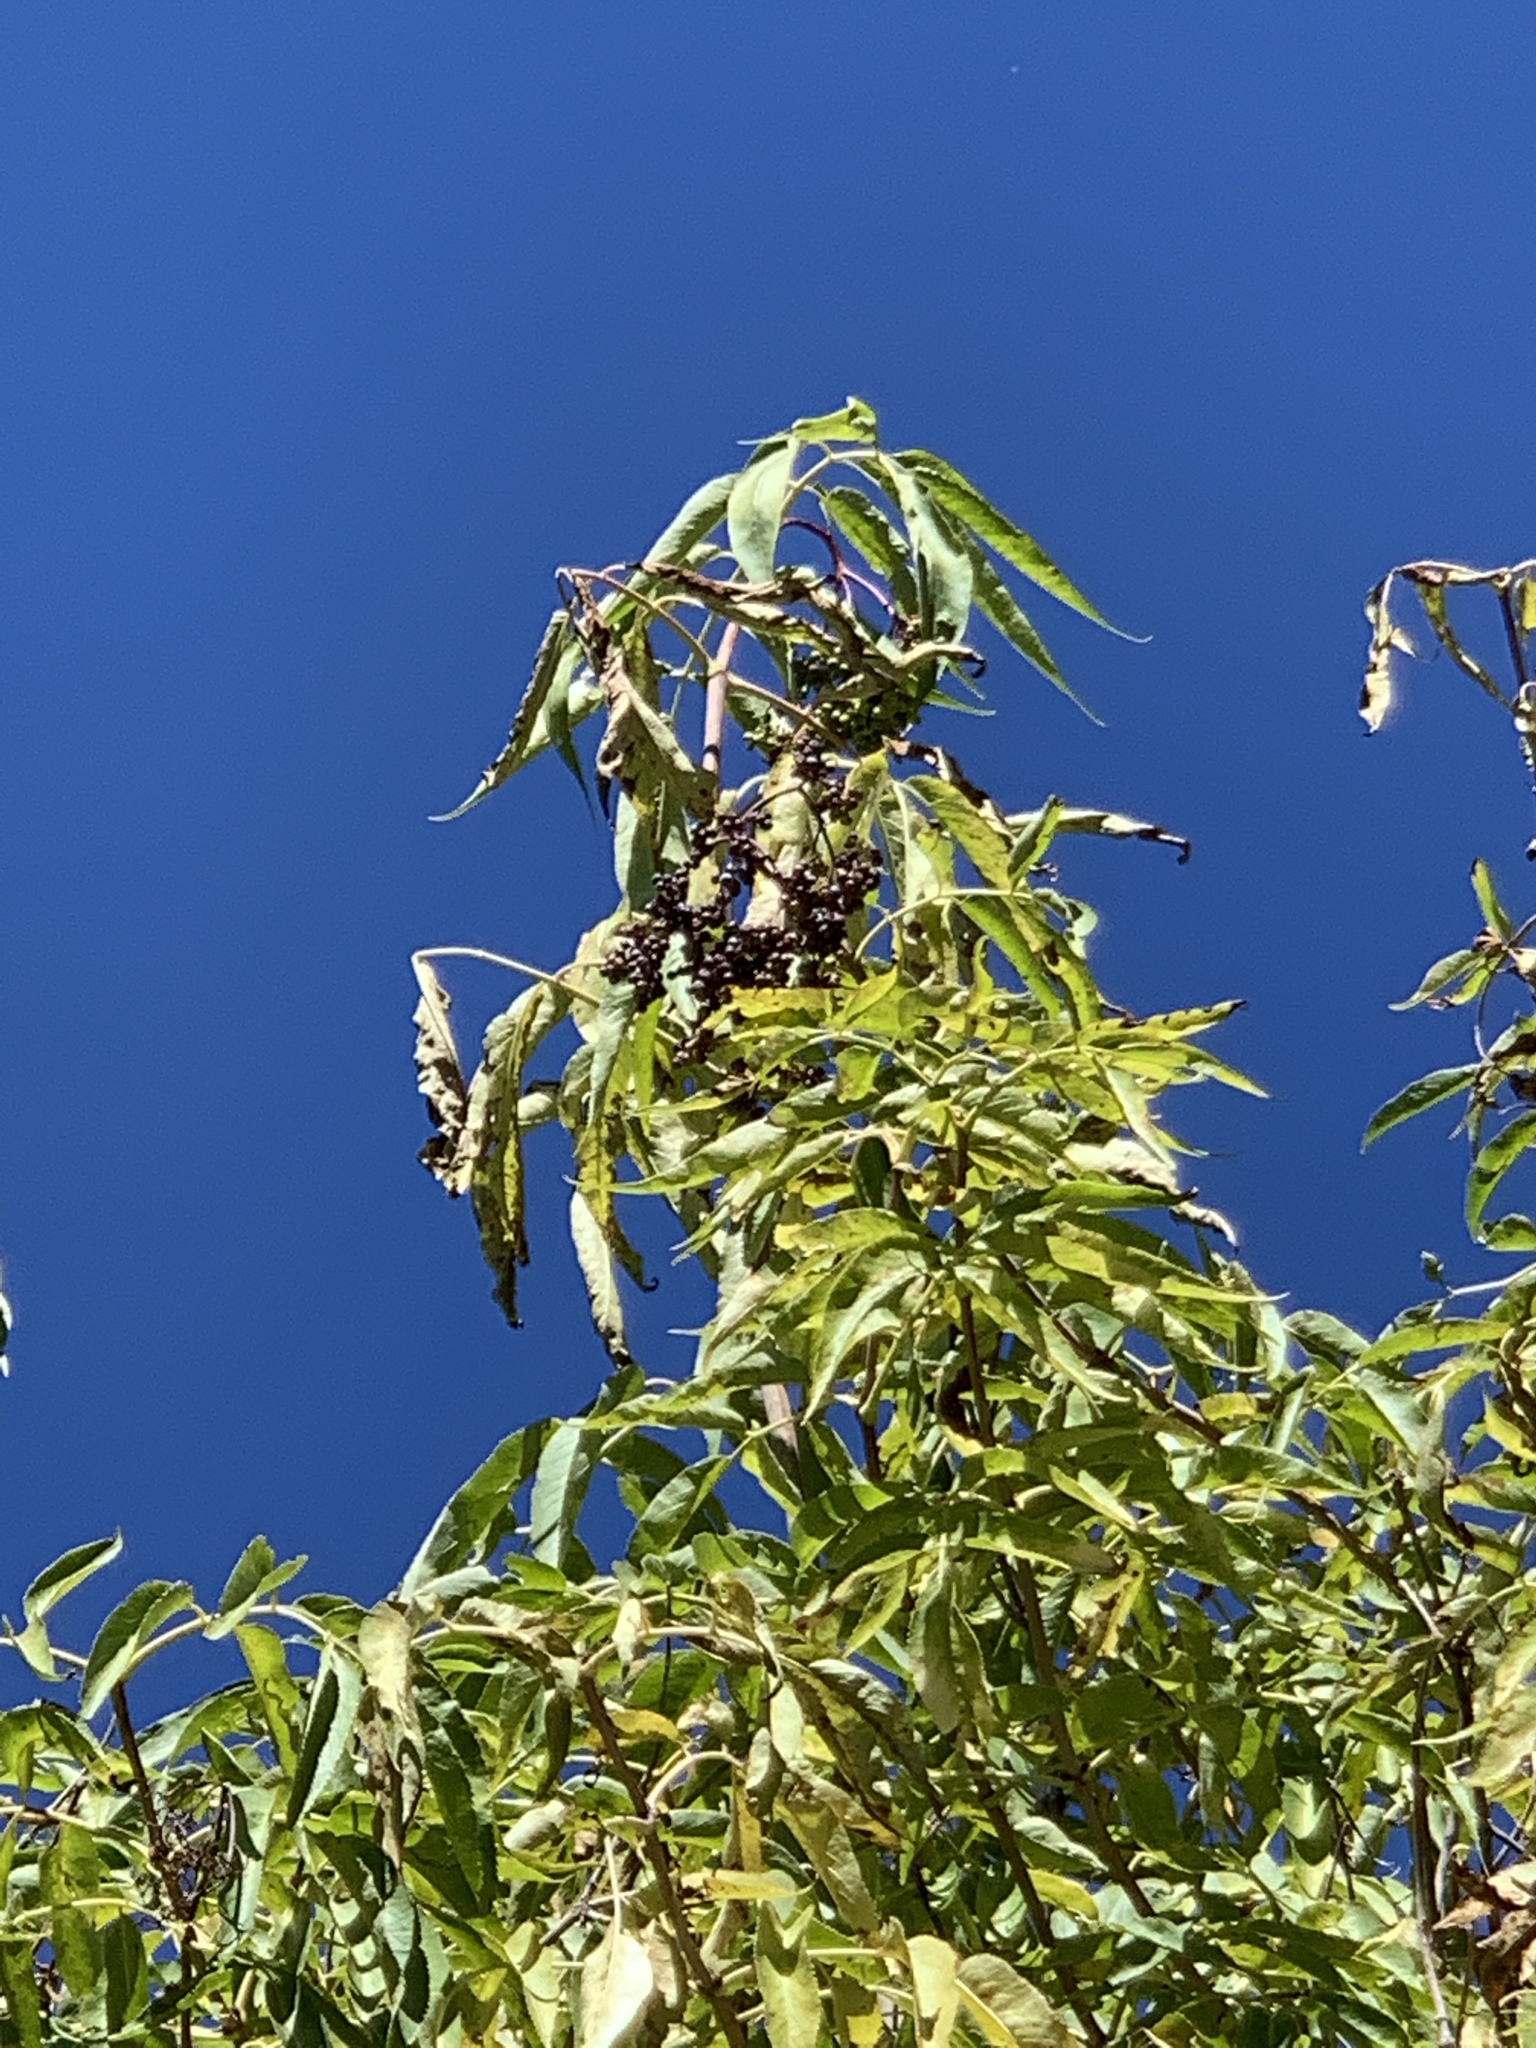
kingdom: Plantae
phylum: Tracheophyta
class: Magnoliopsida
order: Dipsacales
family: Viburnaceae
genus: Sambucus
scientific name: Sambucus cerulea
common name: Blue elder
